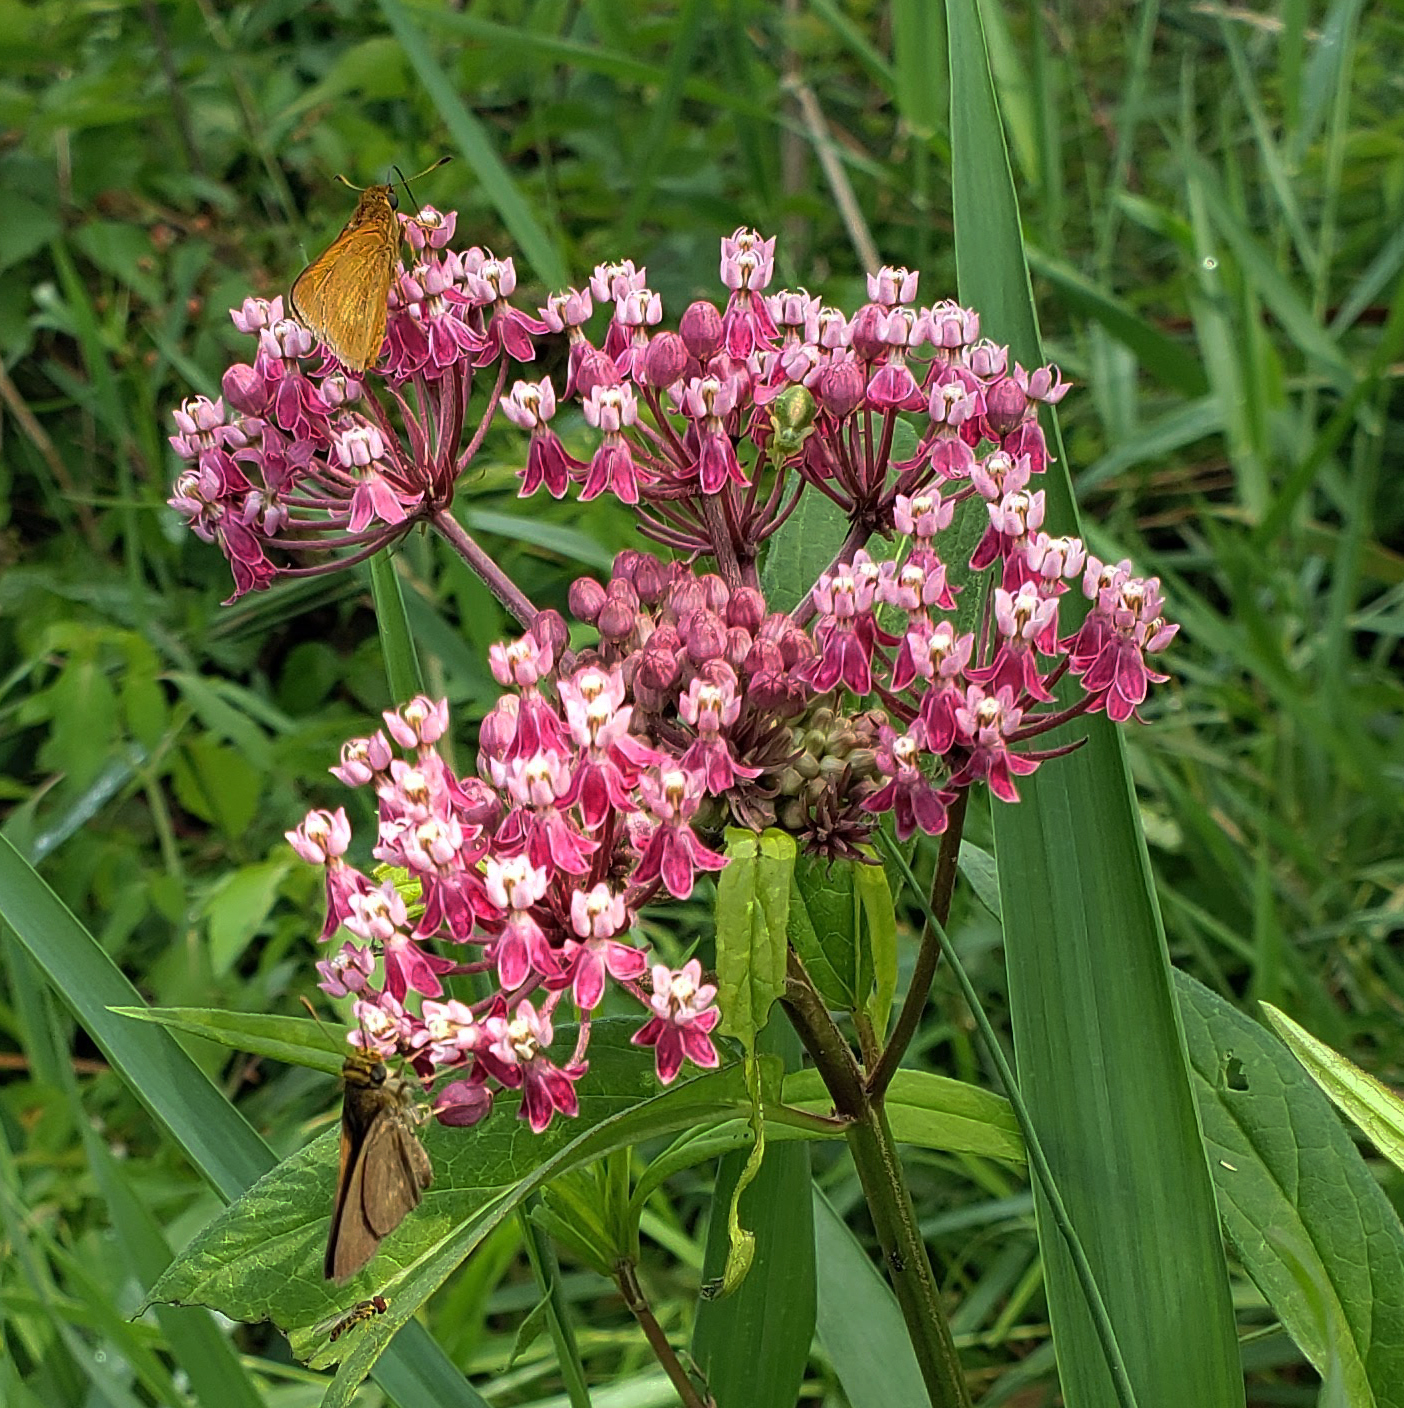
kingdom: Plantae
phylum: Tracheophyta
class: Magnoliopsida
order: Gentianales
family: Apocynaceae
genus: Asclepias
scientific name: Asclepias incarnata
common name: Swamp milkweed
